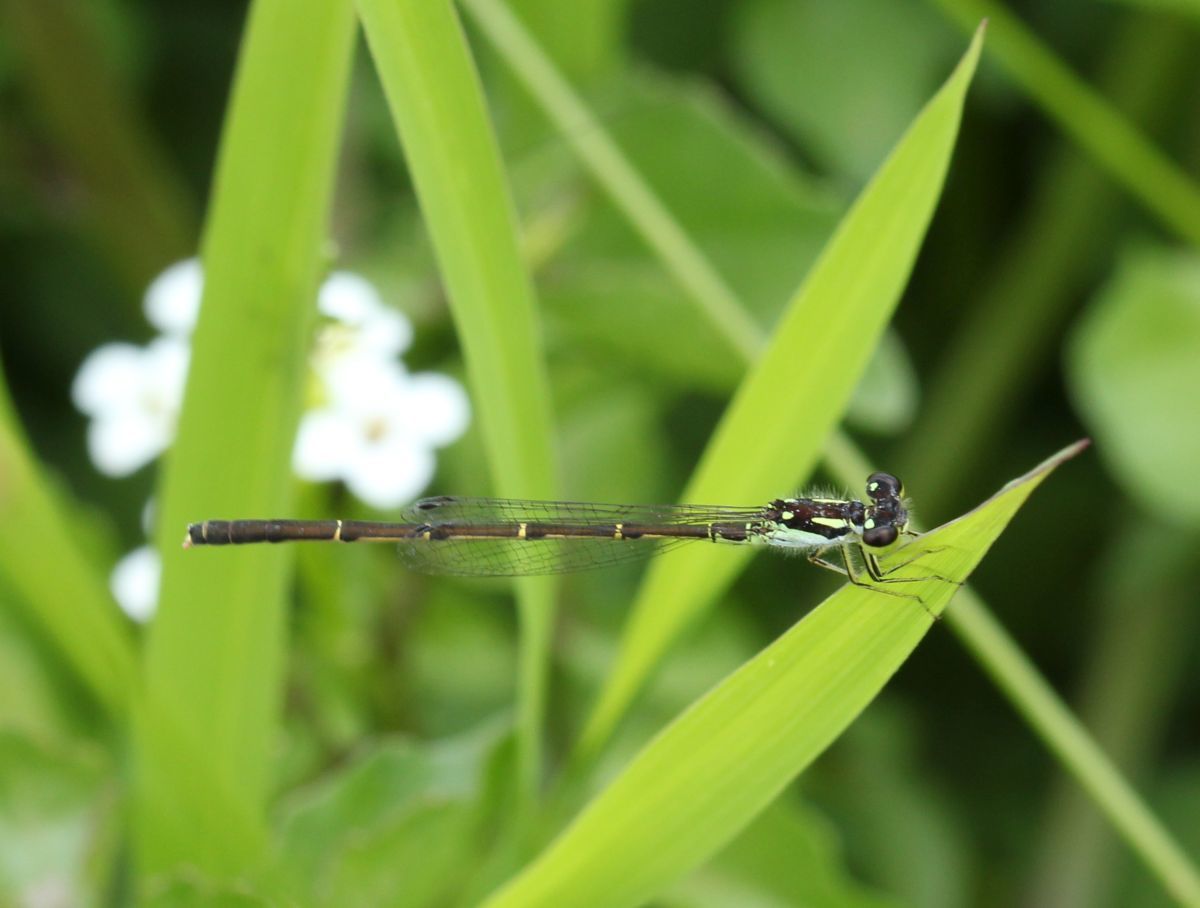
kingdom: Animalia
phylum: Arthropoda
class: Insecta
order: Odonata
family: Coenagrionidae
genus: Ischnura
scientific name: Ischnura posita
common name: Fragile forktail
